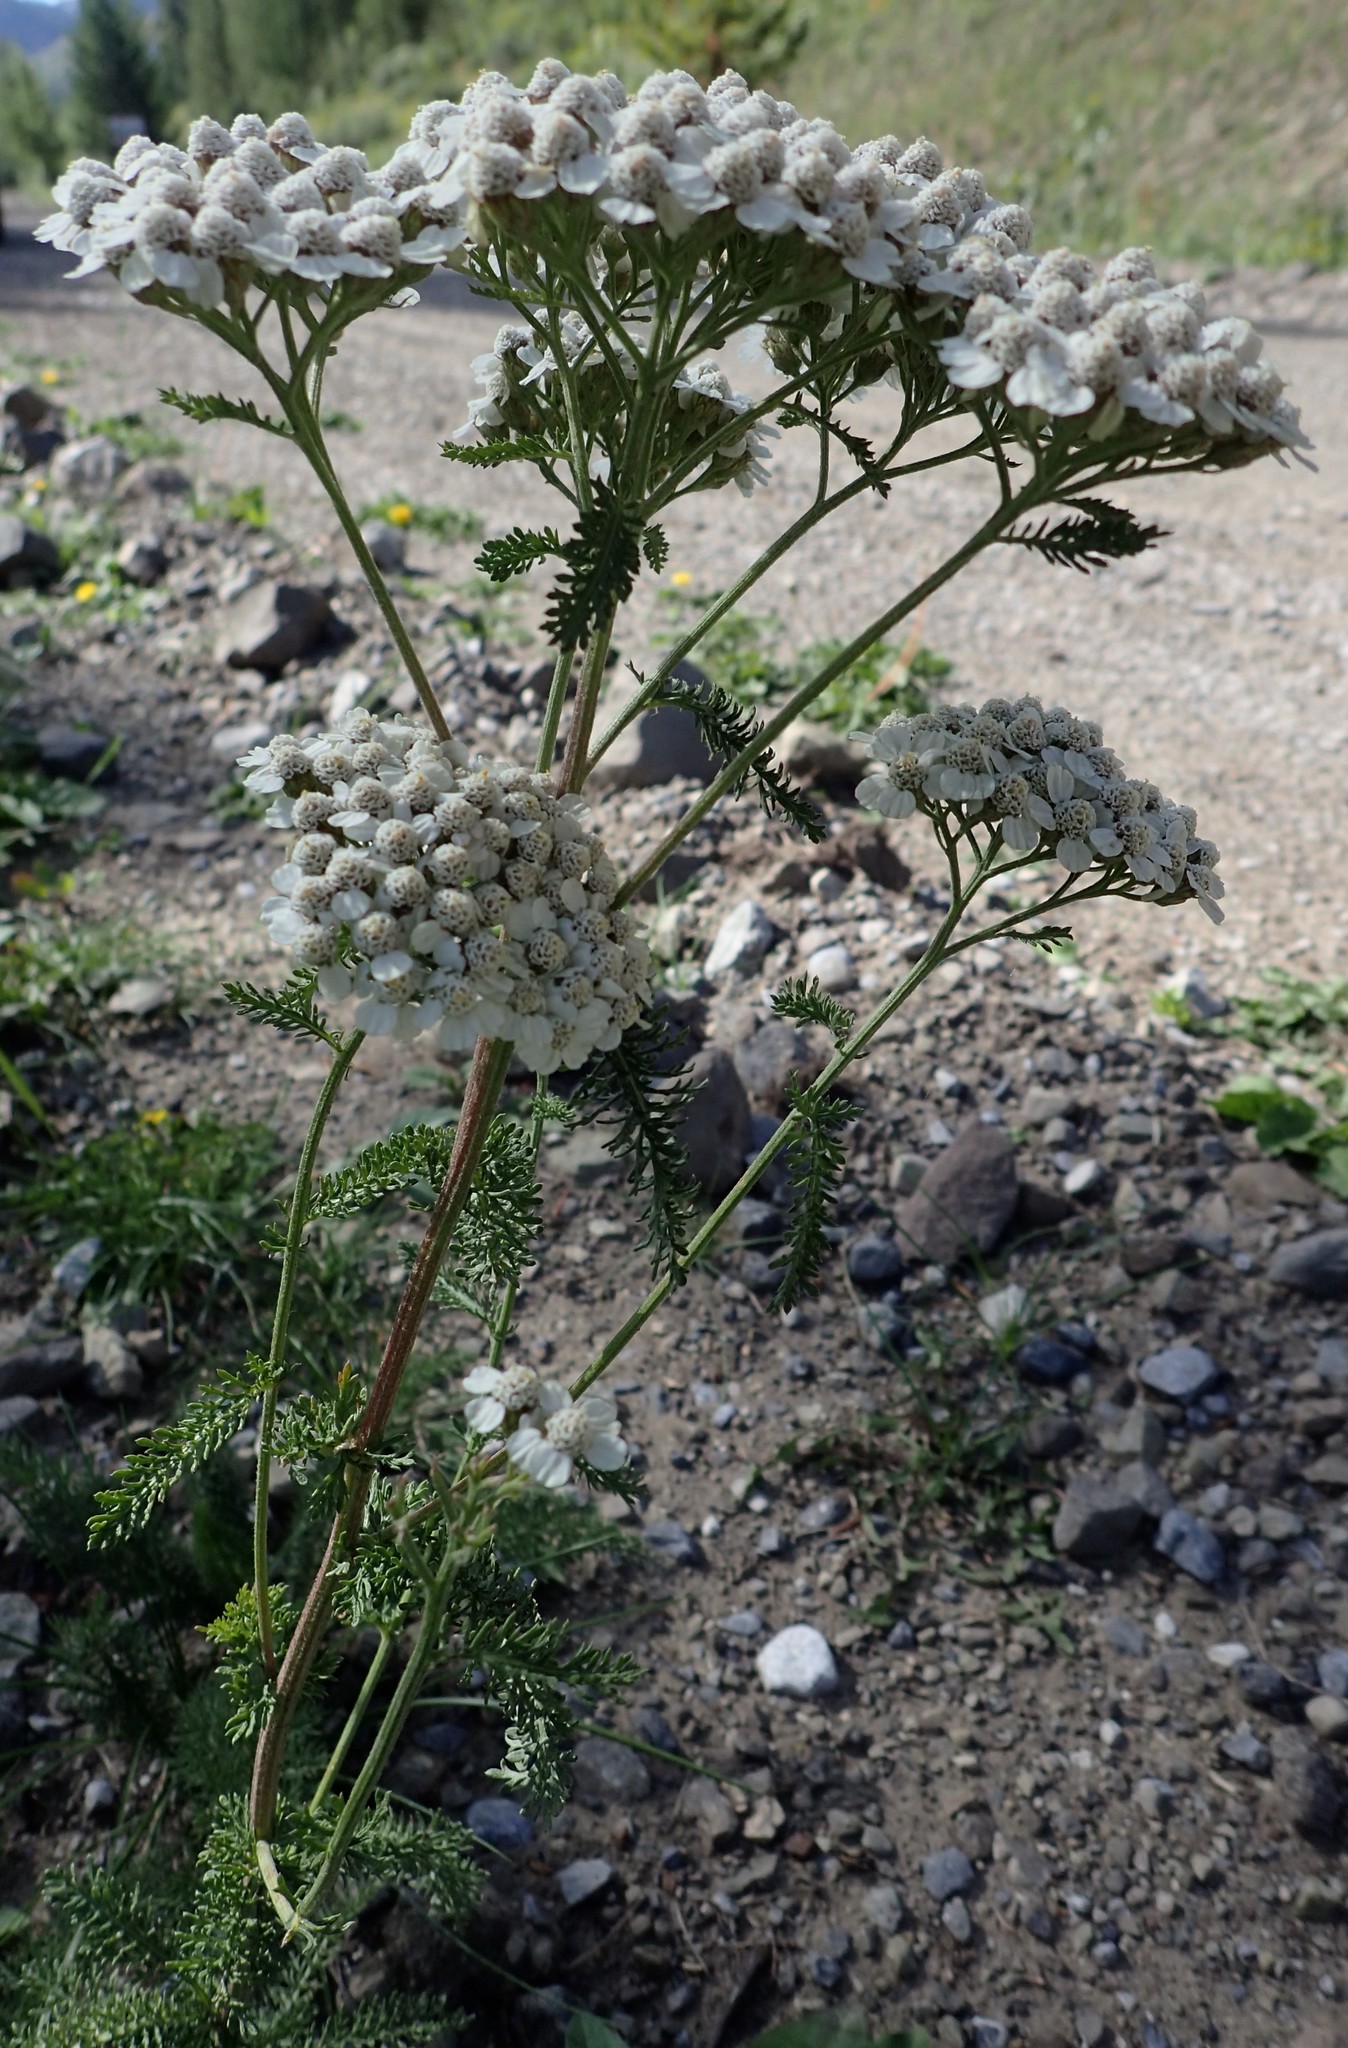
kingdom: Plantae
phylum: Tracheophyta
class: Magnoliopsida
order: Asterales
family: Asteraceae
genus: Achillea
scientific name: Achillea millefolium
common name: Yarrow
